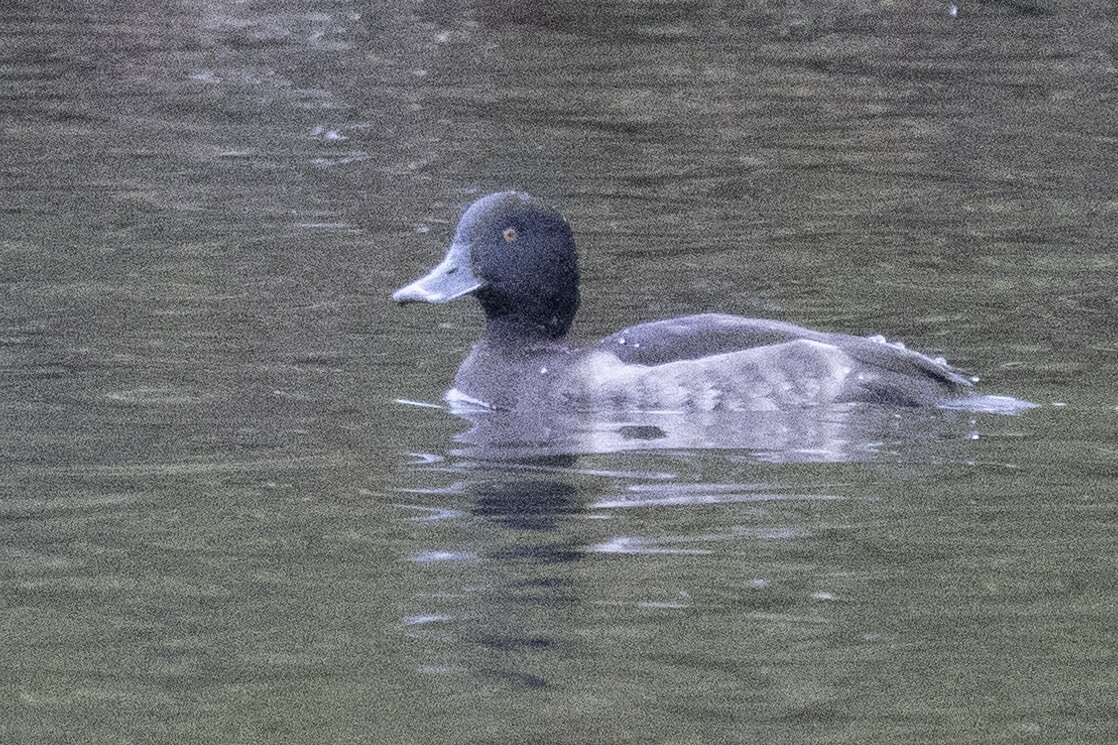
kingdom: Animalia
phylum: Chordata
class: Aves
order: Anseriformes
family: Anatidae
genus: Aythya
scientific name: Aythya fuligula
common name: Tufted duck
